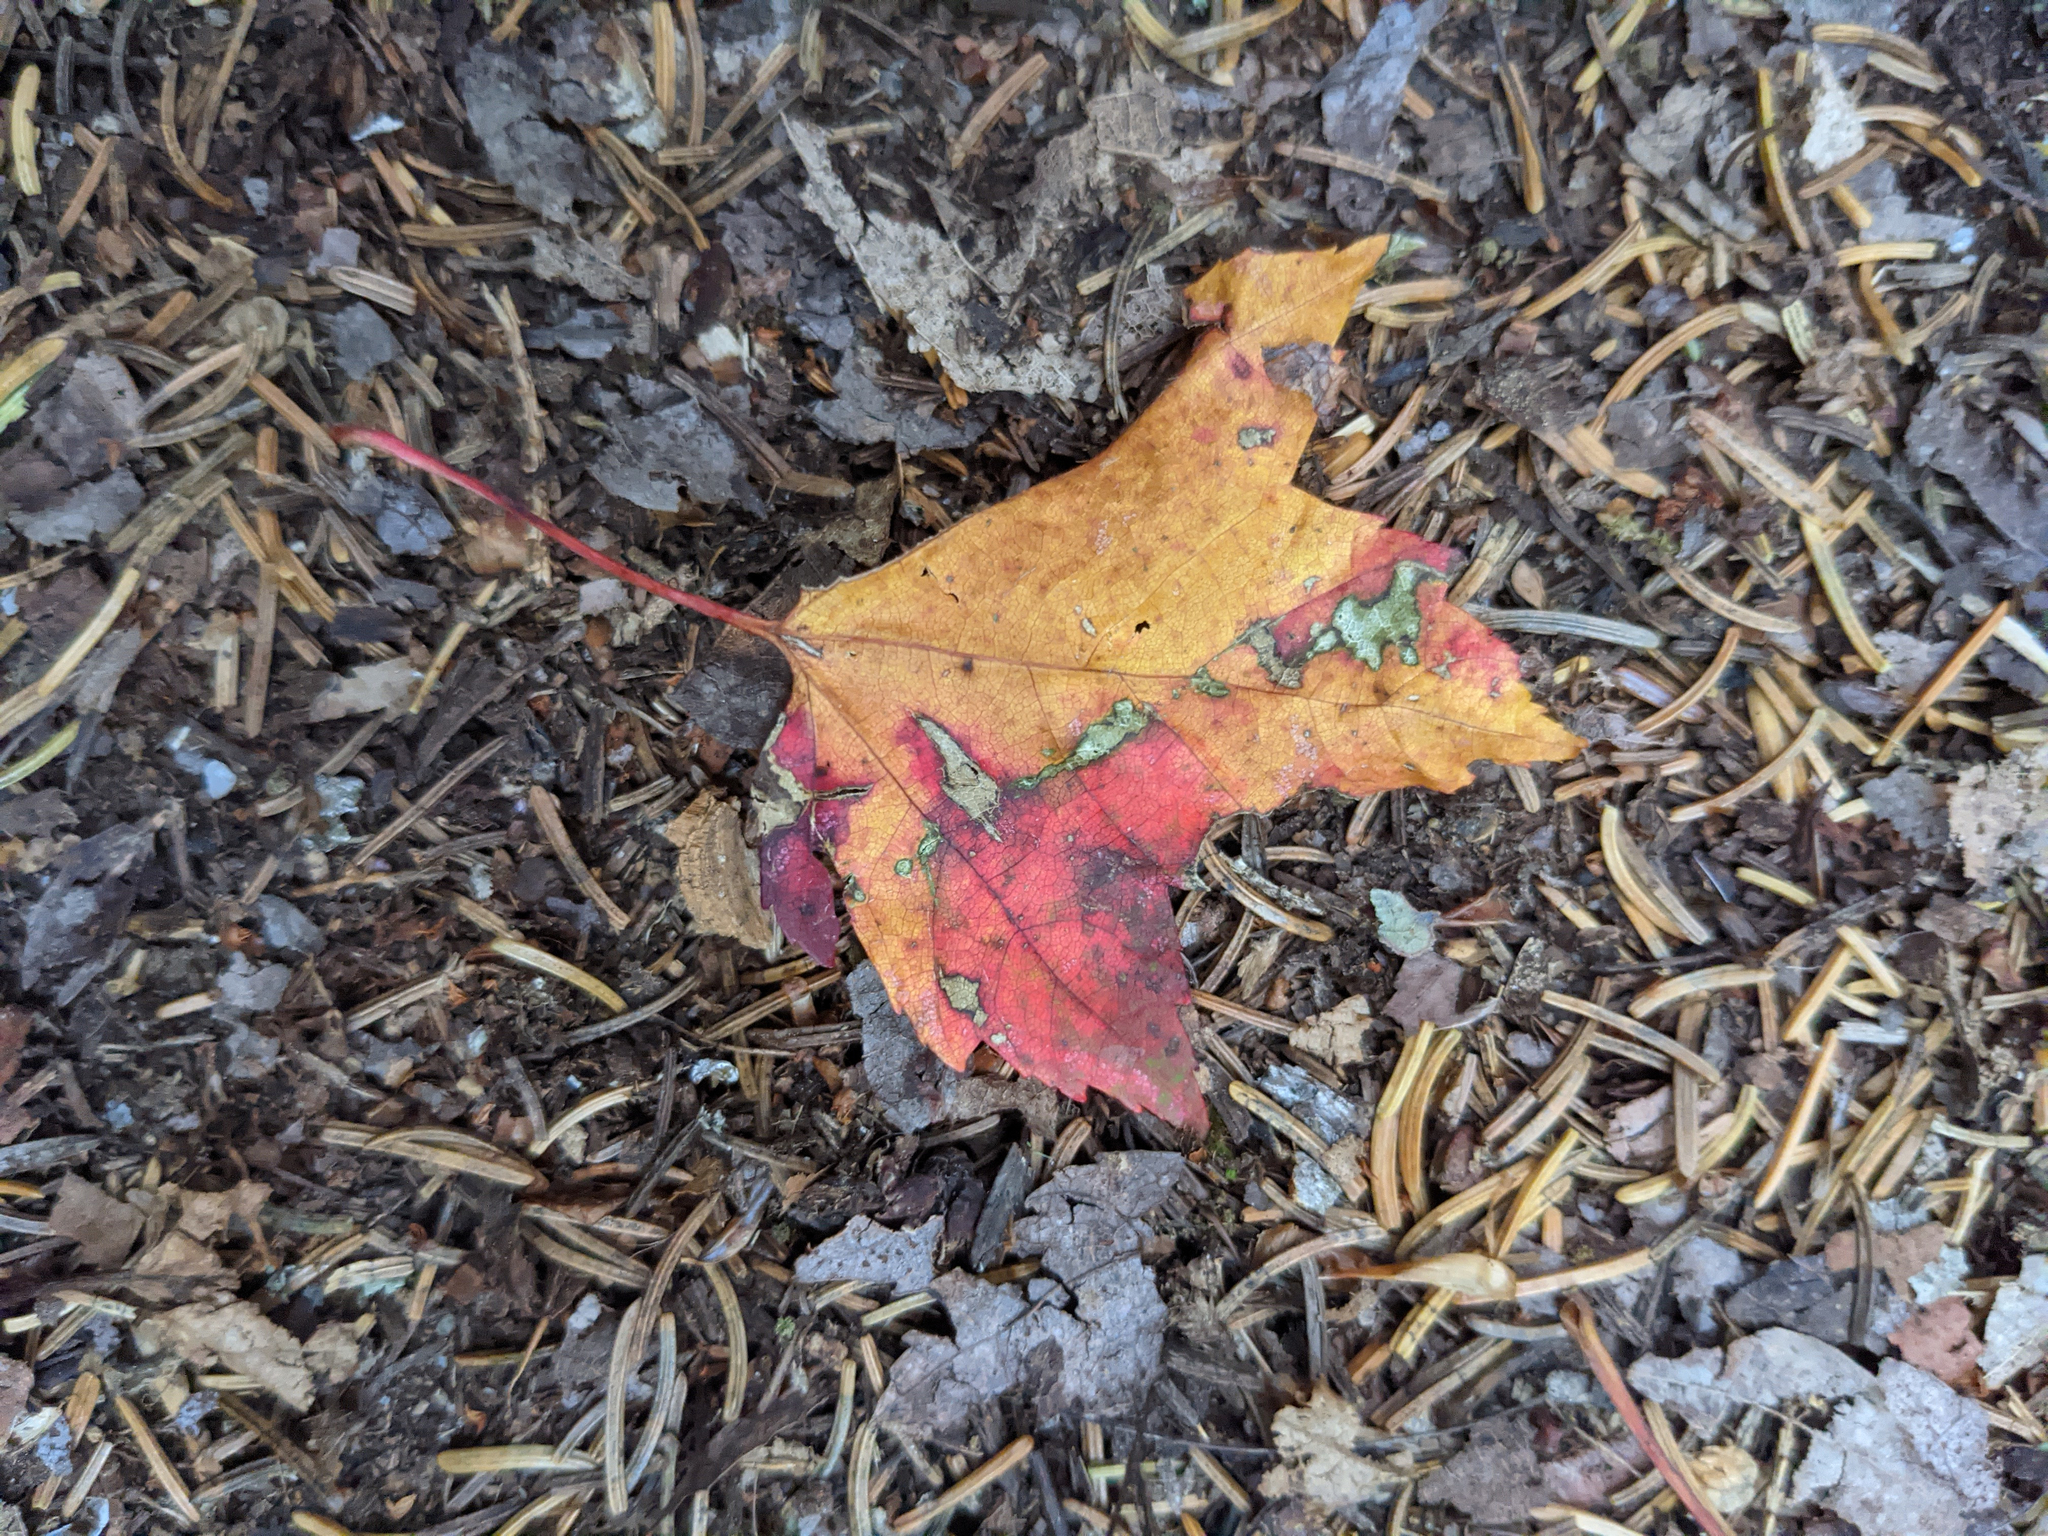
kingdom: Plantae
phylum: Tracheophyta
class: Magnoliopsida
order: Sapindales
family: Sapindaceae
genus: Acer
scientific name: Acer rubrum
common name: Red maple
